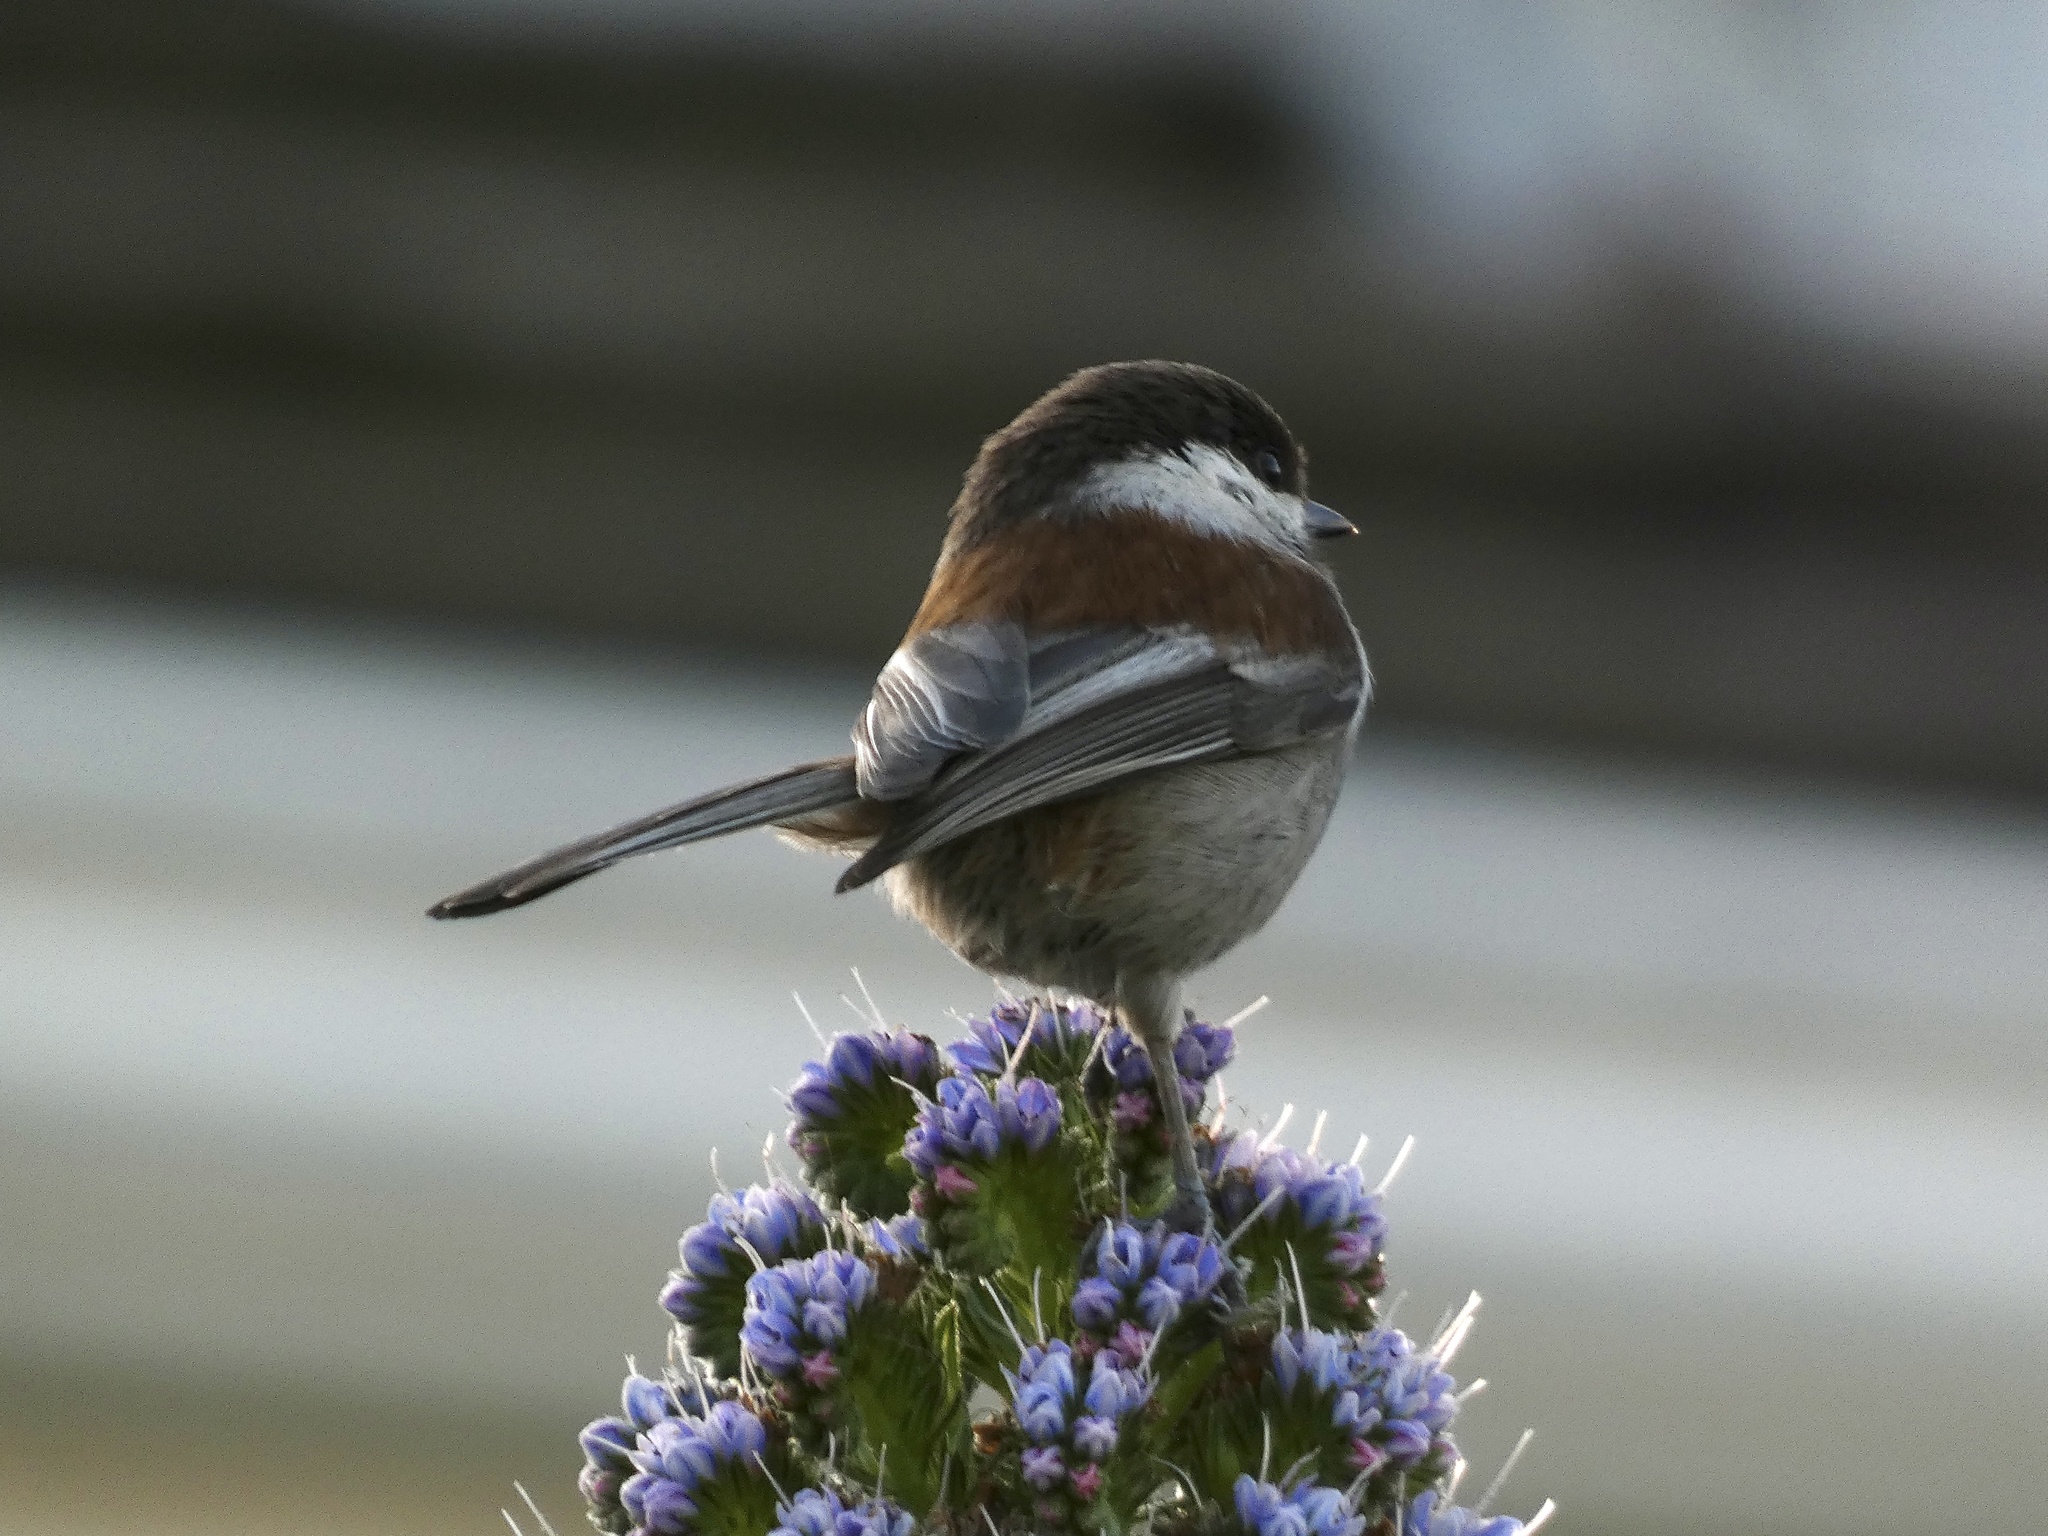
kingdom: Animalia
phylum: Chordata
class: Aves
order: Passeriformes
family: Paridae
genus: Poecile
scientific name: Poecile rufescens
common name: Chestnut-backed chickadee
